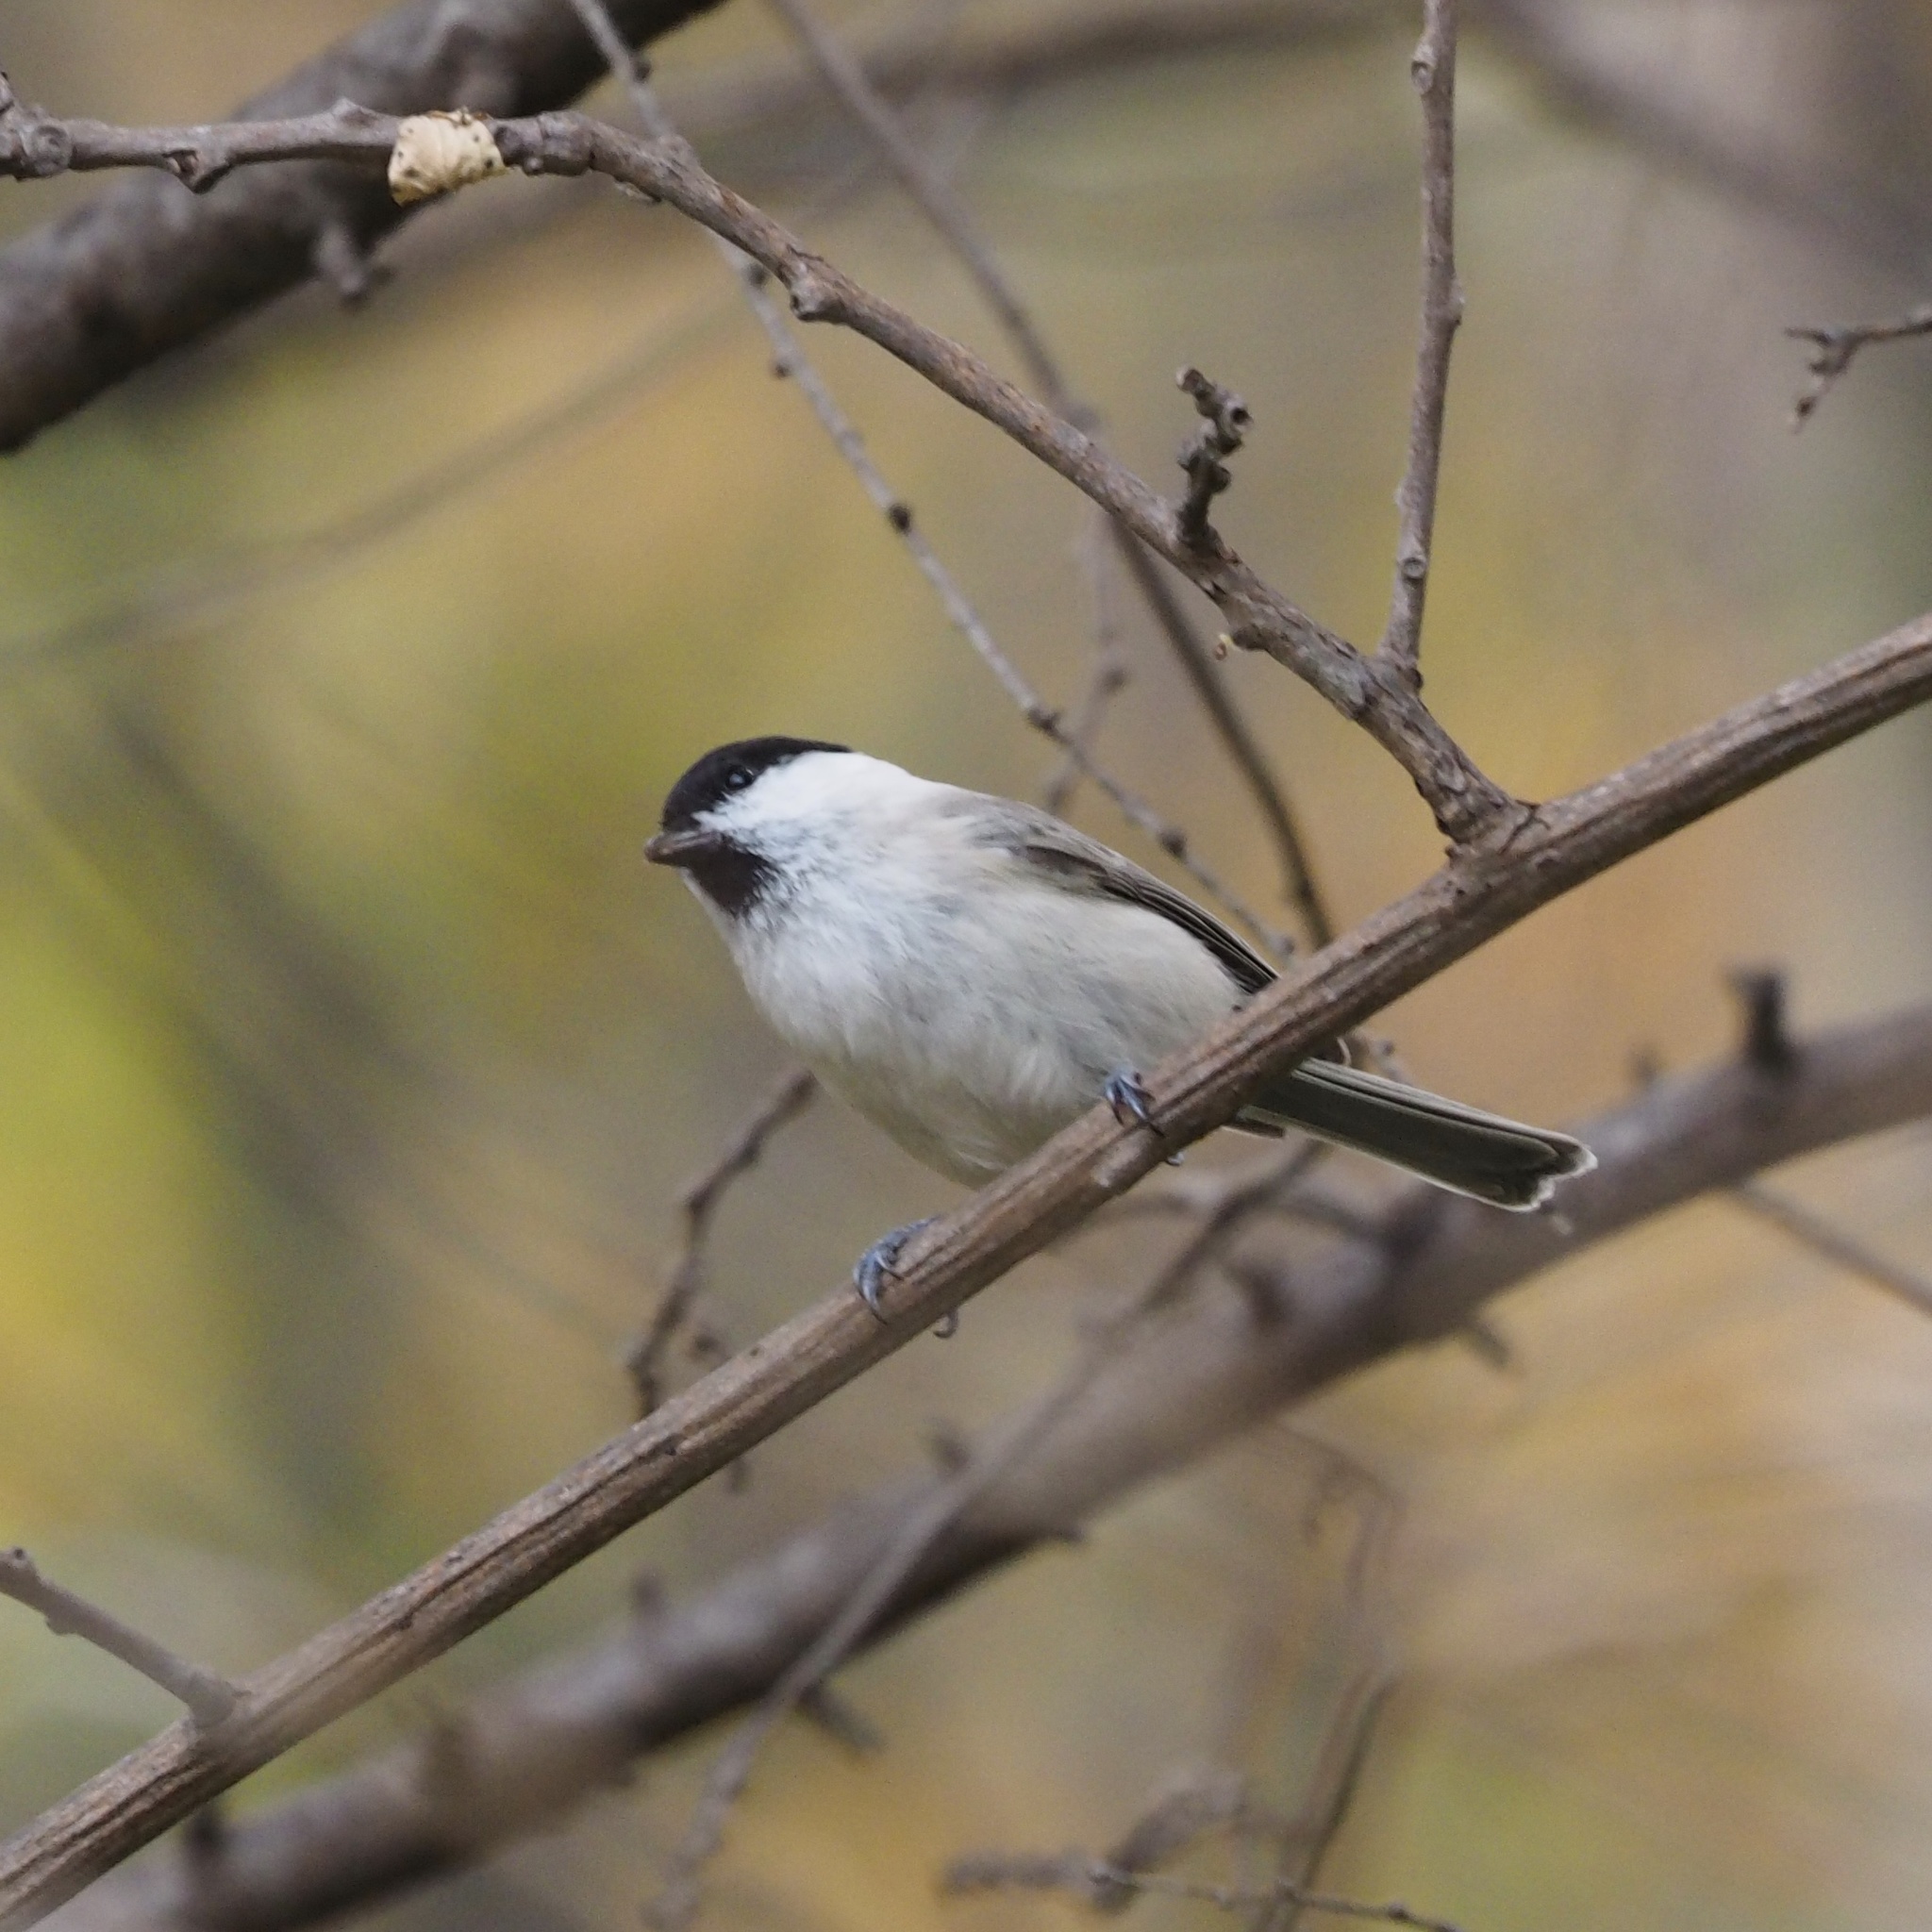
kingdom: Animalia
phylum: Chordata
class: Aves
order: Passeriformes
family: Paridae
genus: Poecile
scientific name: Poecile palustris
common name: Marsh tit
